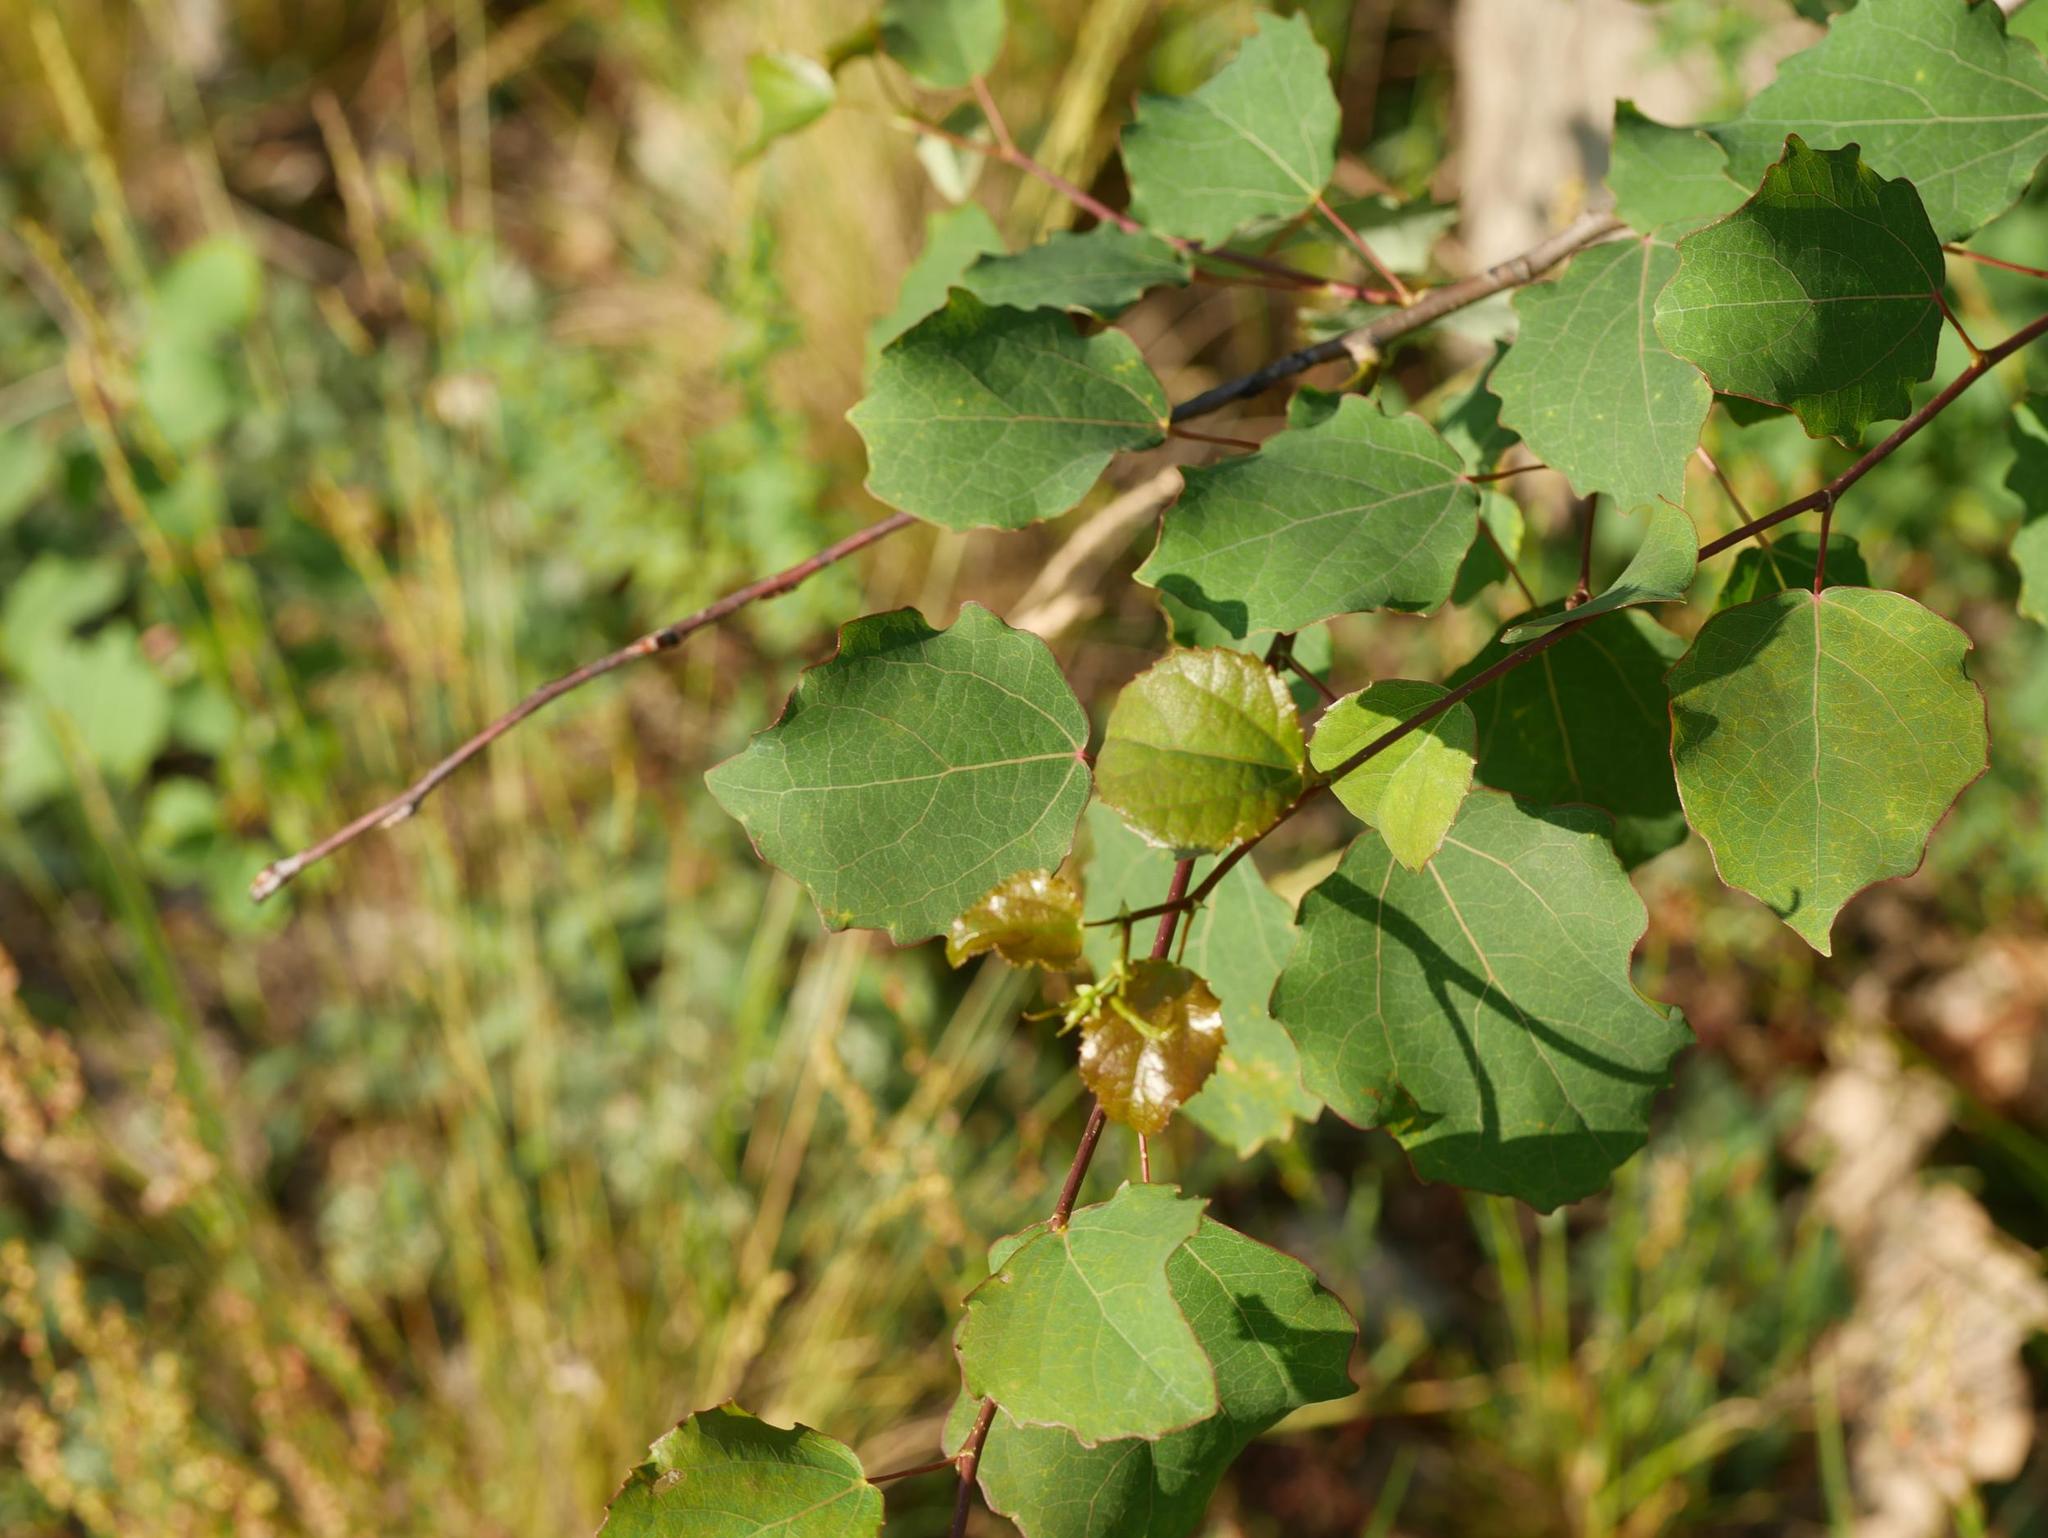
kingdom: Plantae
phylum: Tracheophyta
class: Magnoliopsida
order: Malpighiales
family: Salicaceae
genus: Populus
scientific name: Populus tremula
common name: European aspen
